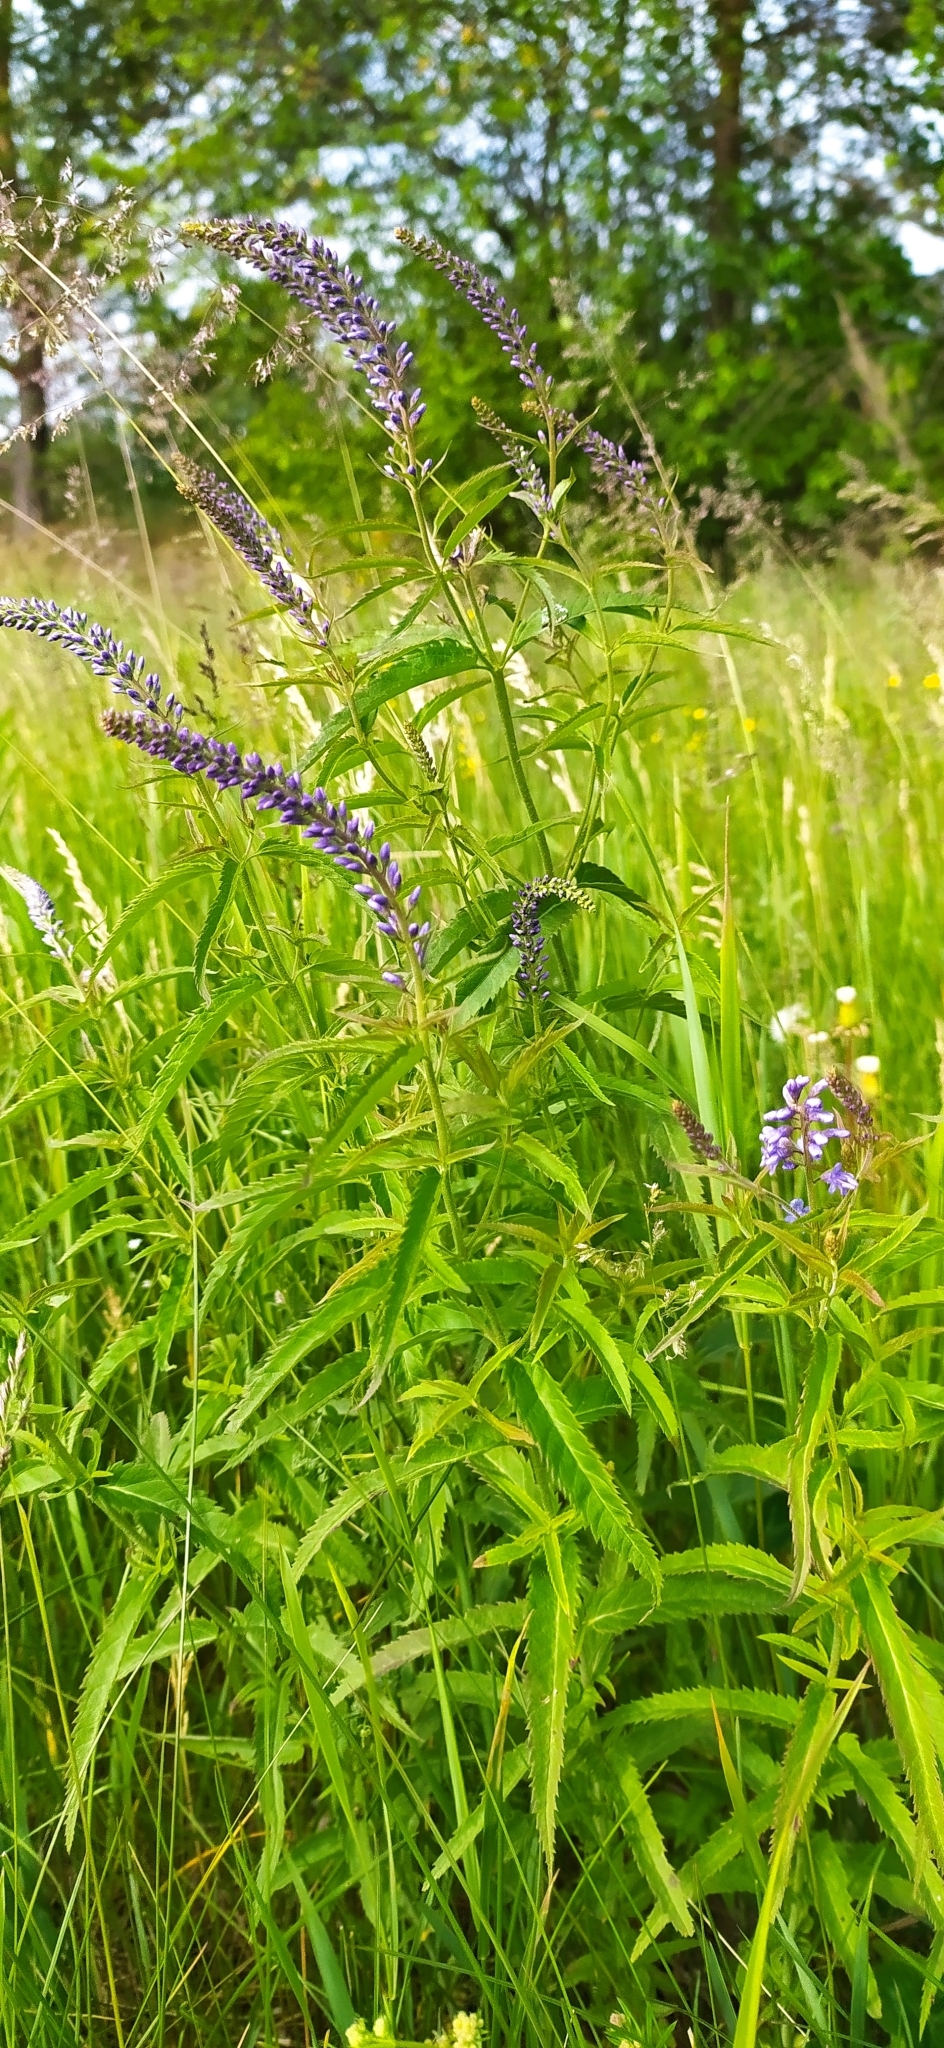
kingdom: Plantae
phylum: Tracheophyta
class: Magnoliopsida
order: Lamiales
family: Plantaginaceae
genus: Veronica
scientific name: Veronica longifolia
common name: Garden speedwell
